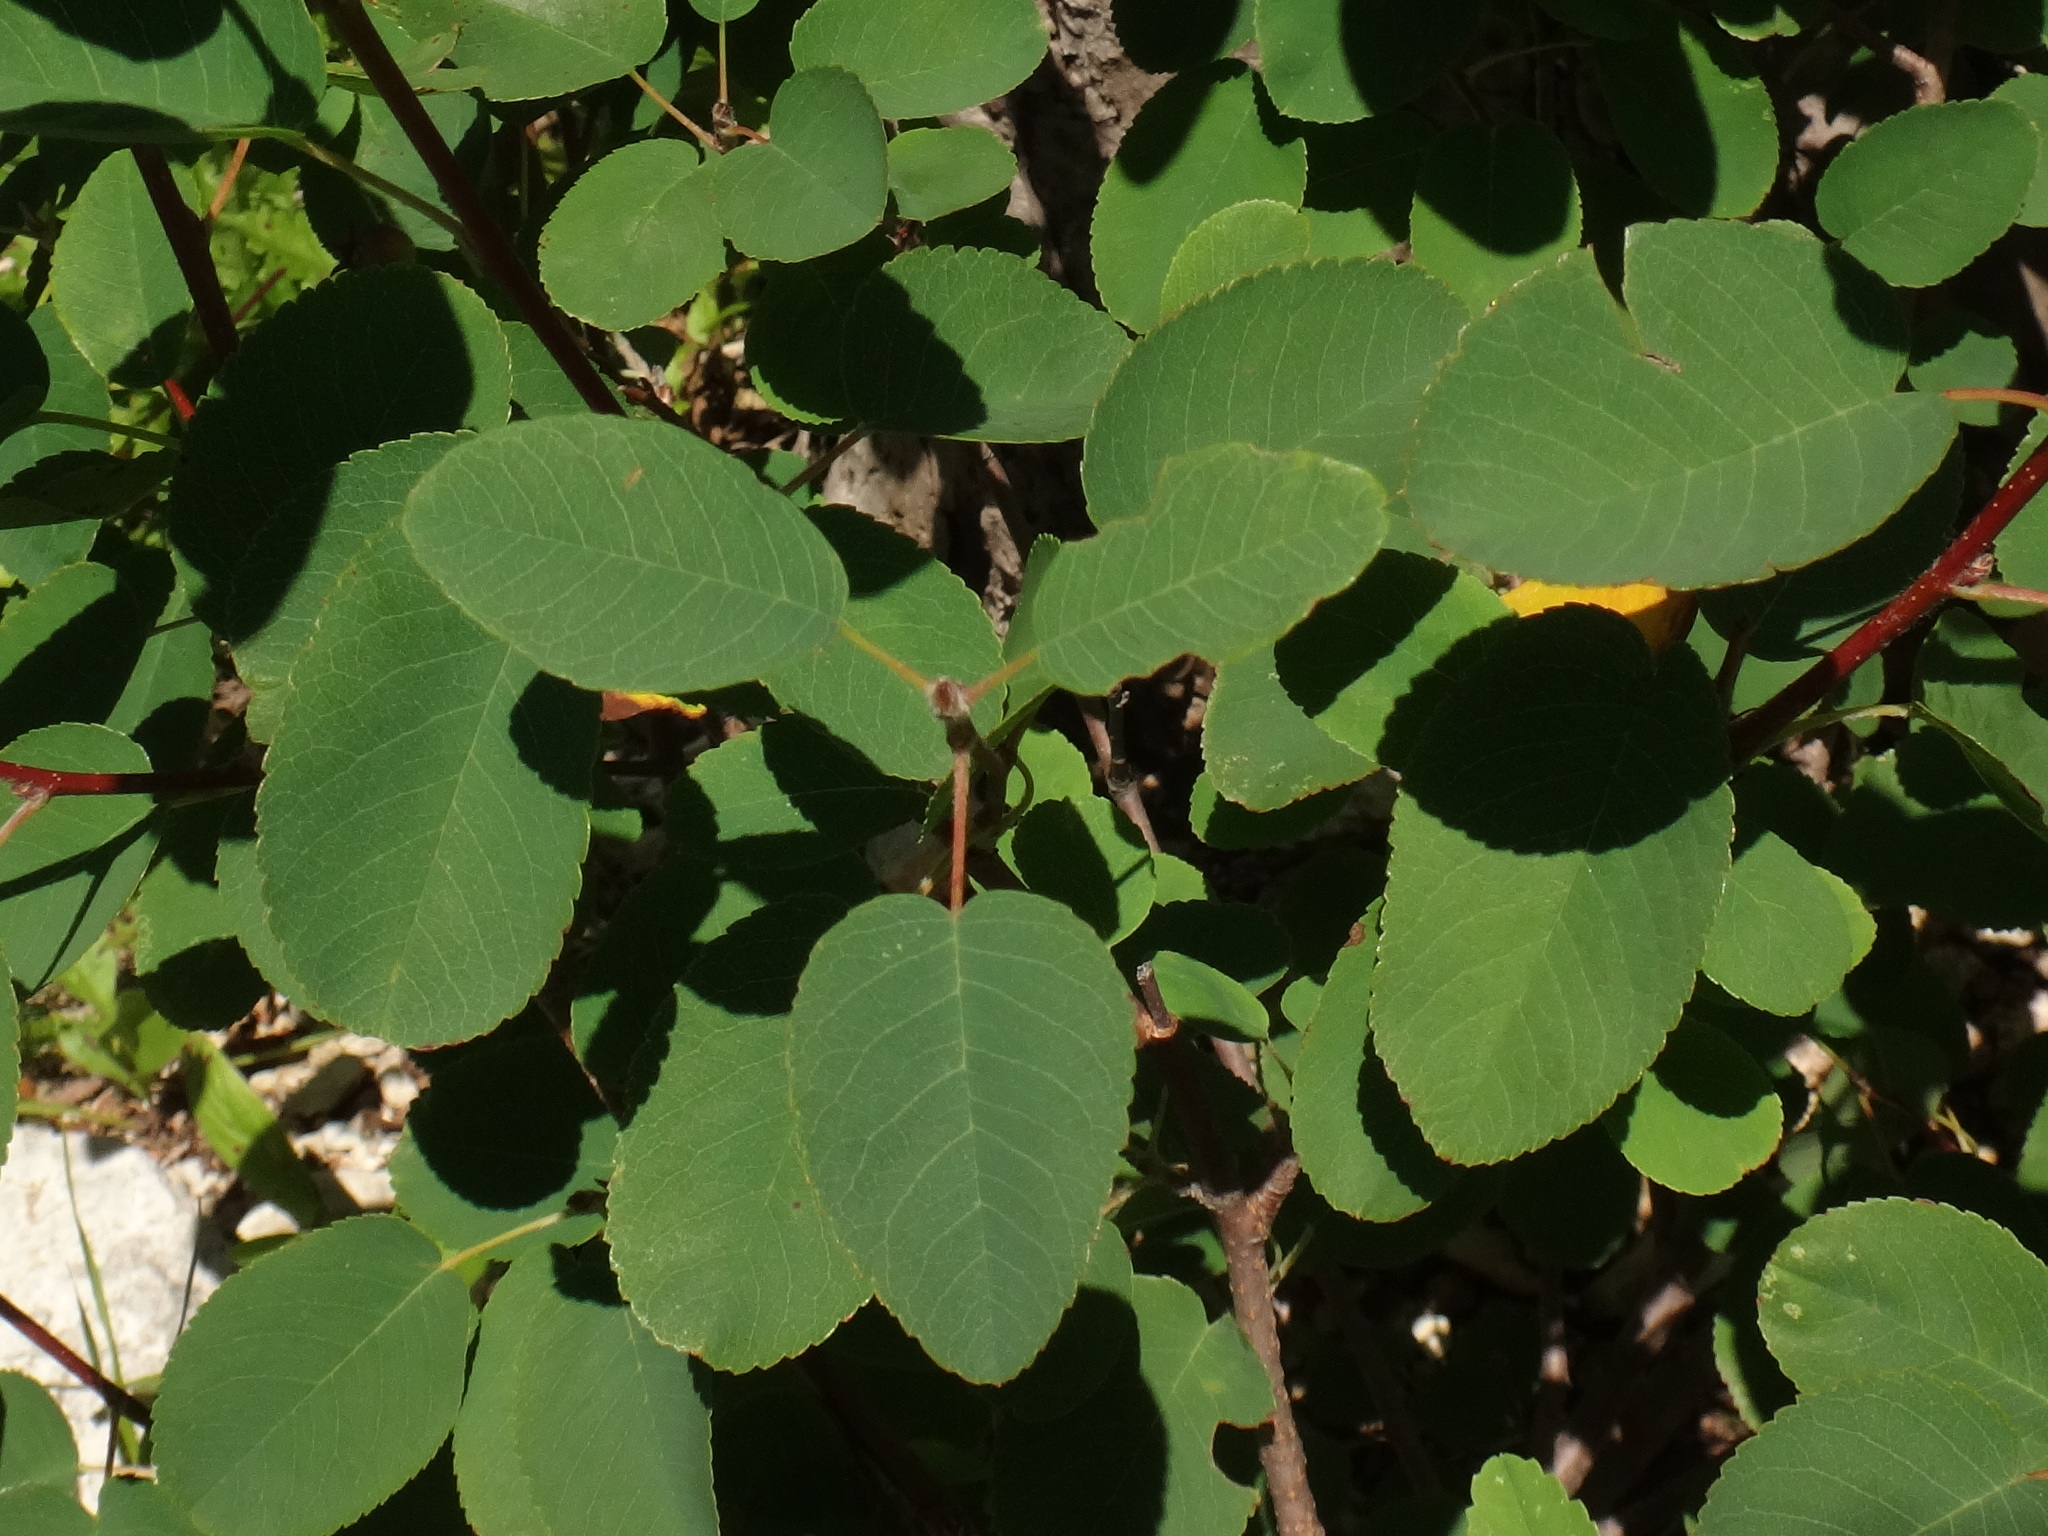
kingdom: Plantae
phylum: Tracheophyta
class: Magnoliopsida
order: Rosales
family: Rosaceae
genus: Amelanchier
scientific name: Amelanchier ovalis
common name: Serviceberry
